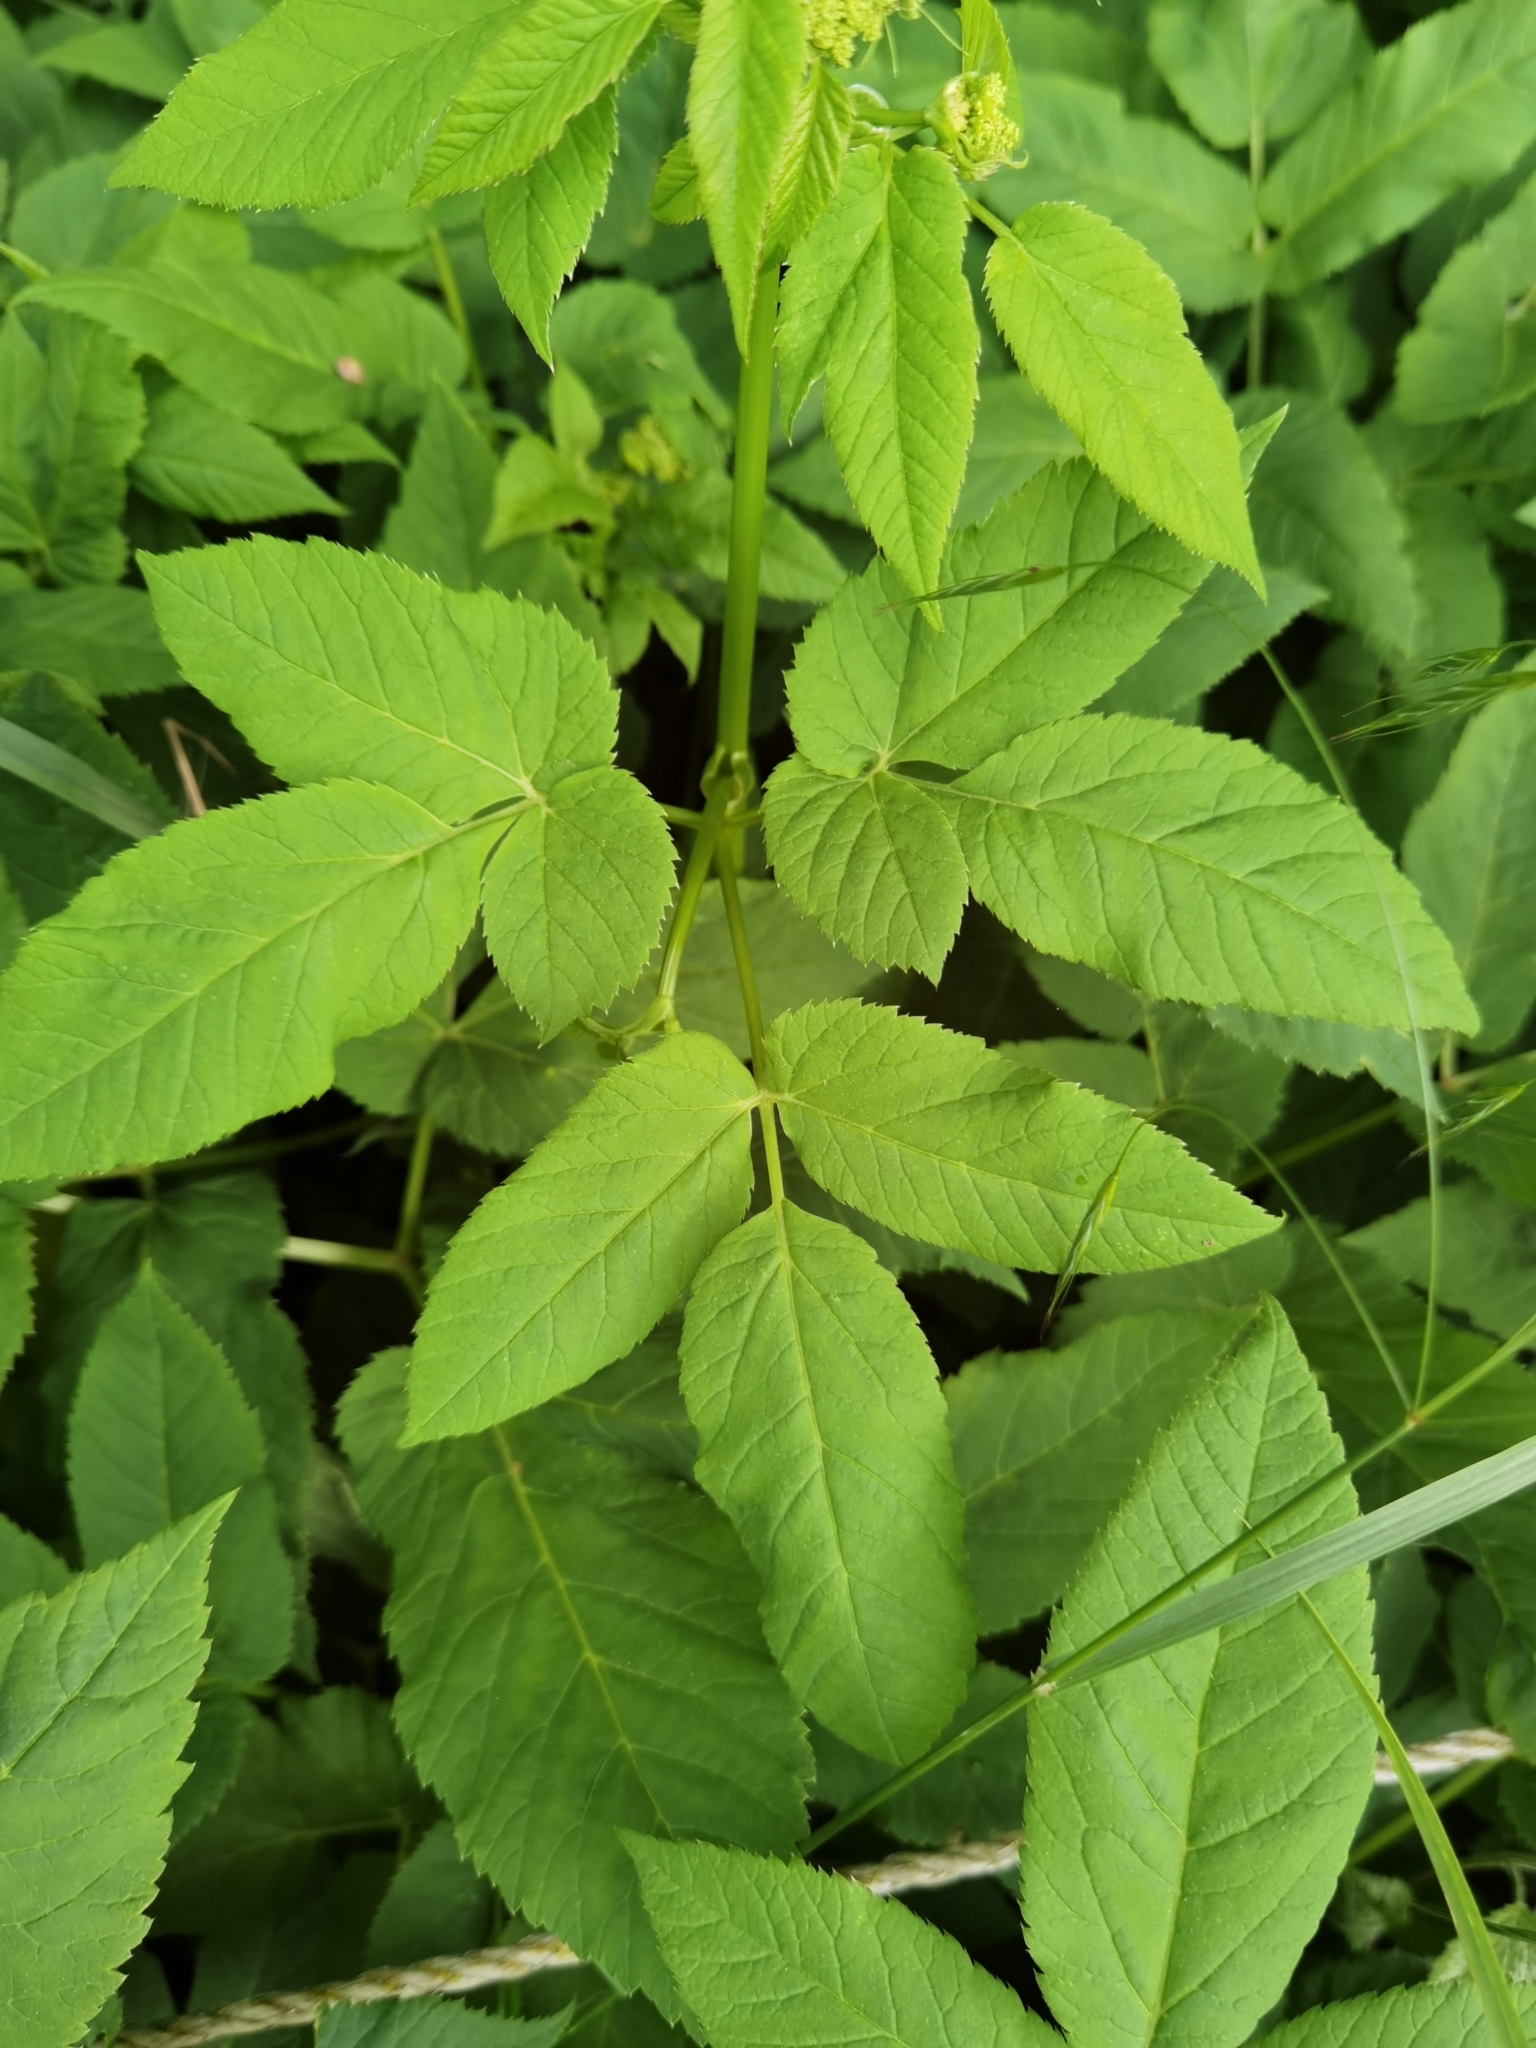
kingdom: Plantae
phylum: Tracheophyta
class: Magnoliopsida
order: Apiales
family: Apiaceae
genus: Aegopodium
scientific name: Aegopodium podagraria
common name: Ground-elder
